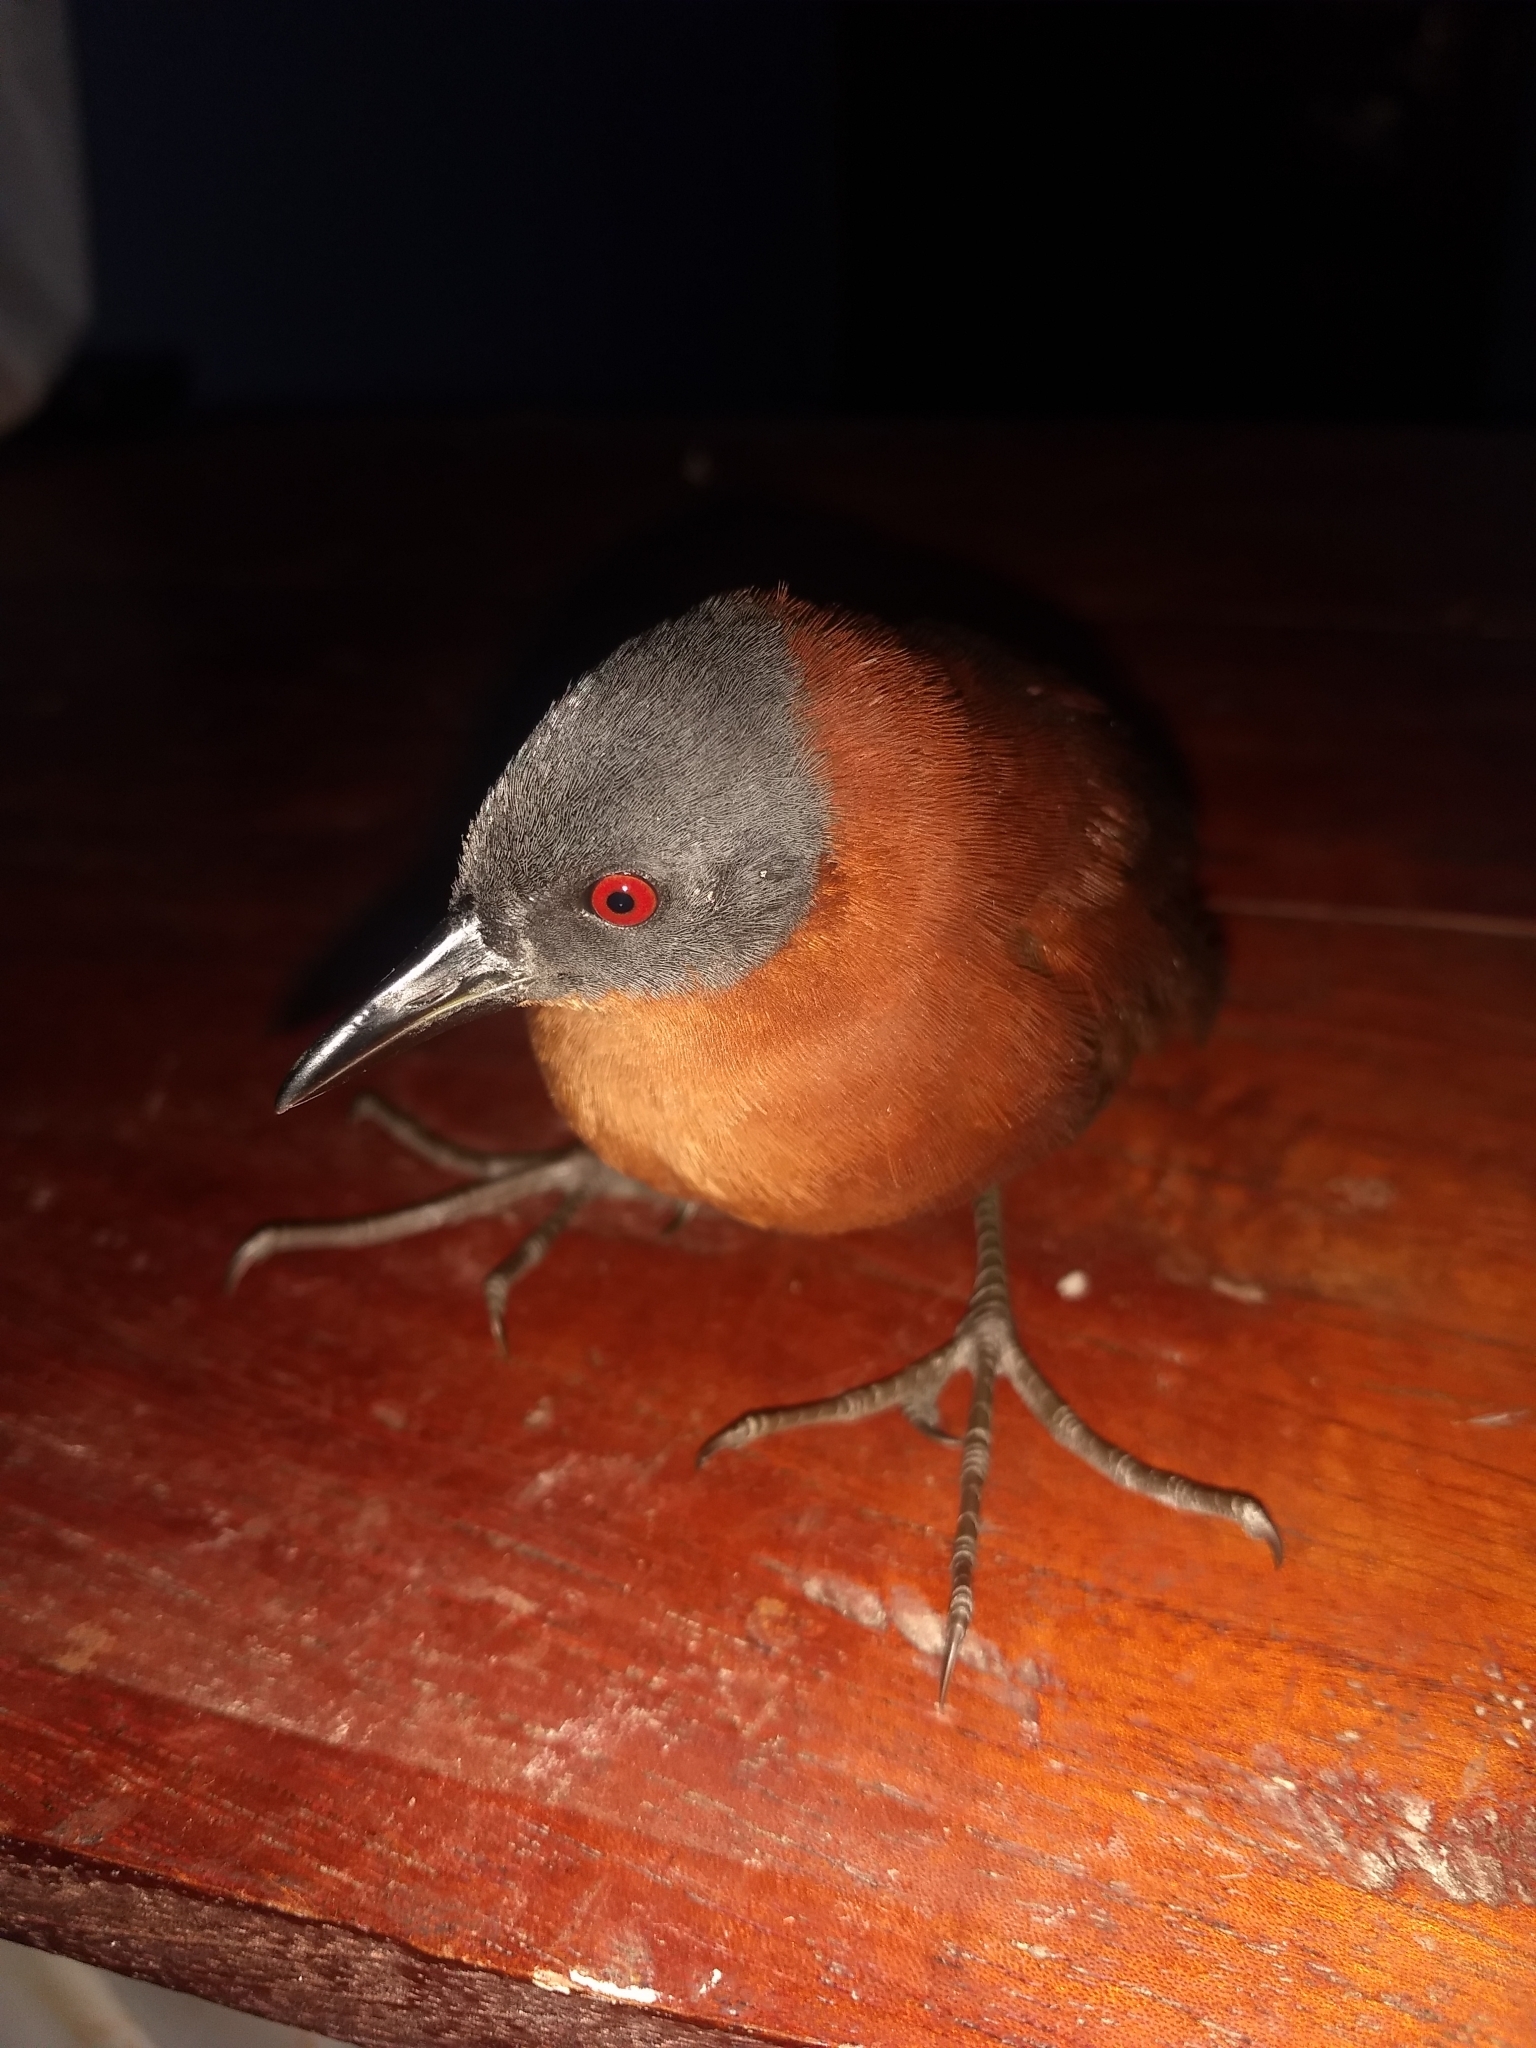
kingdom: Animalia
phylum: Chordata
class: Aves
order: Gruiformes
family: Rallidae
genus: Laterallus
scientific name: Laterallus ruber
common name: Ruddy crake
